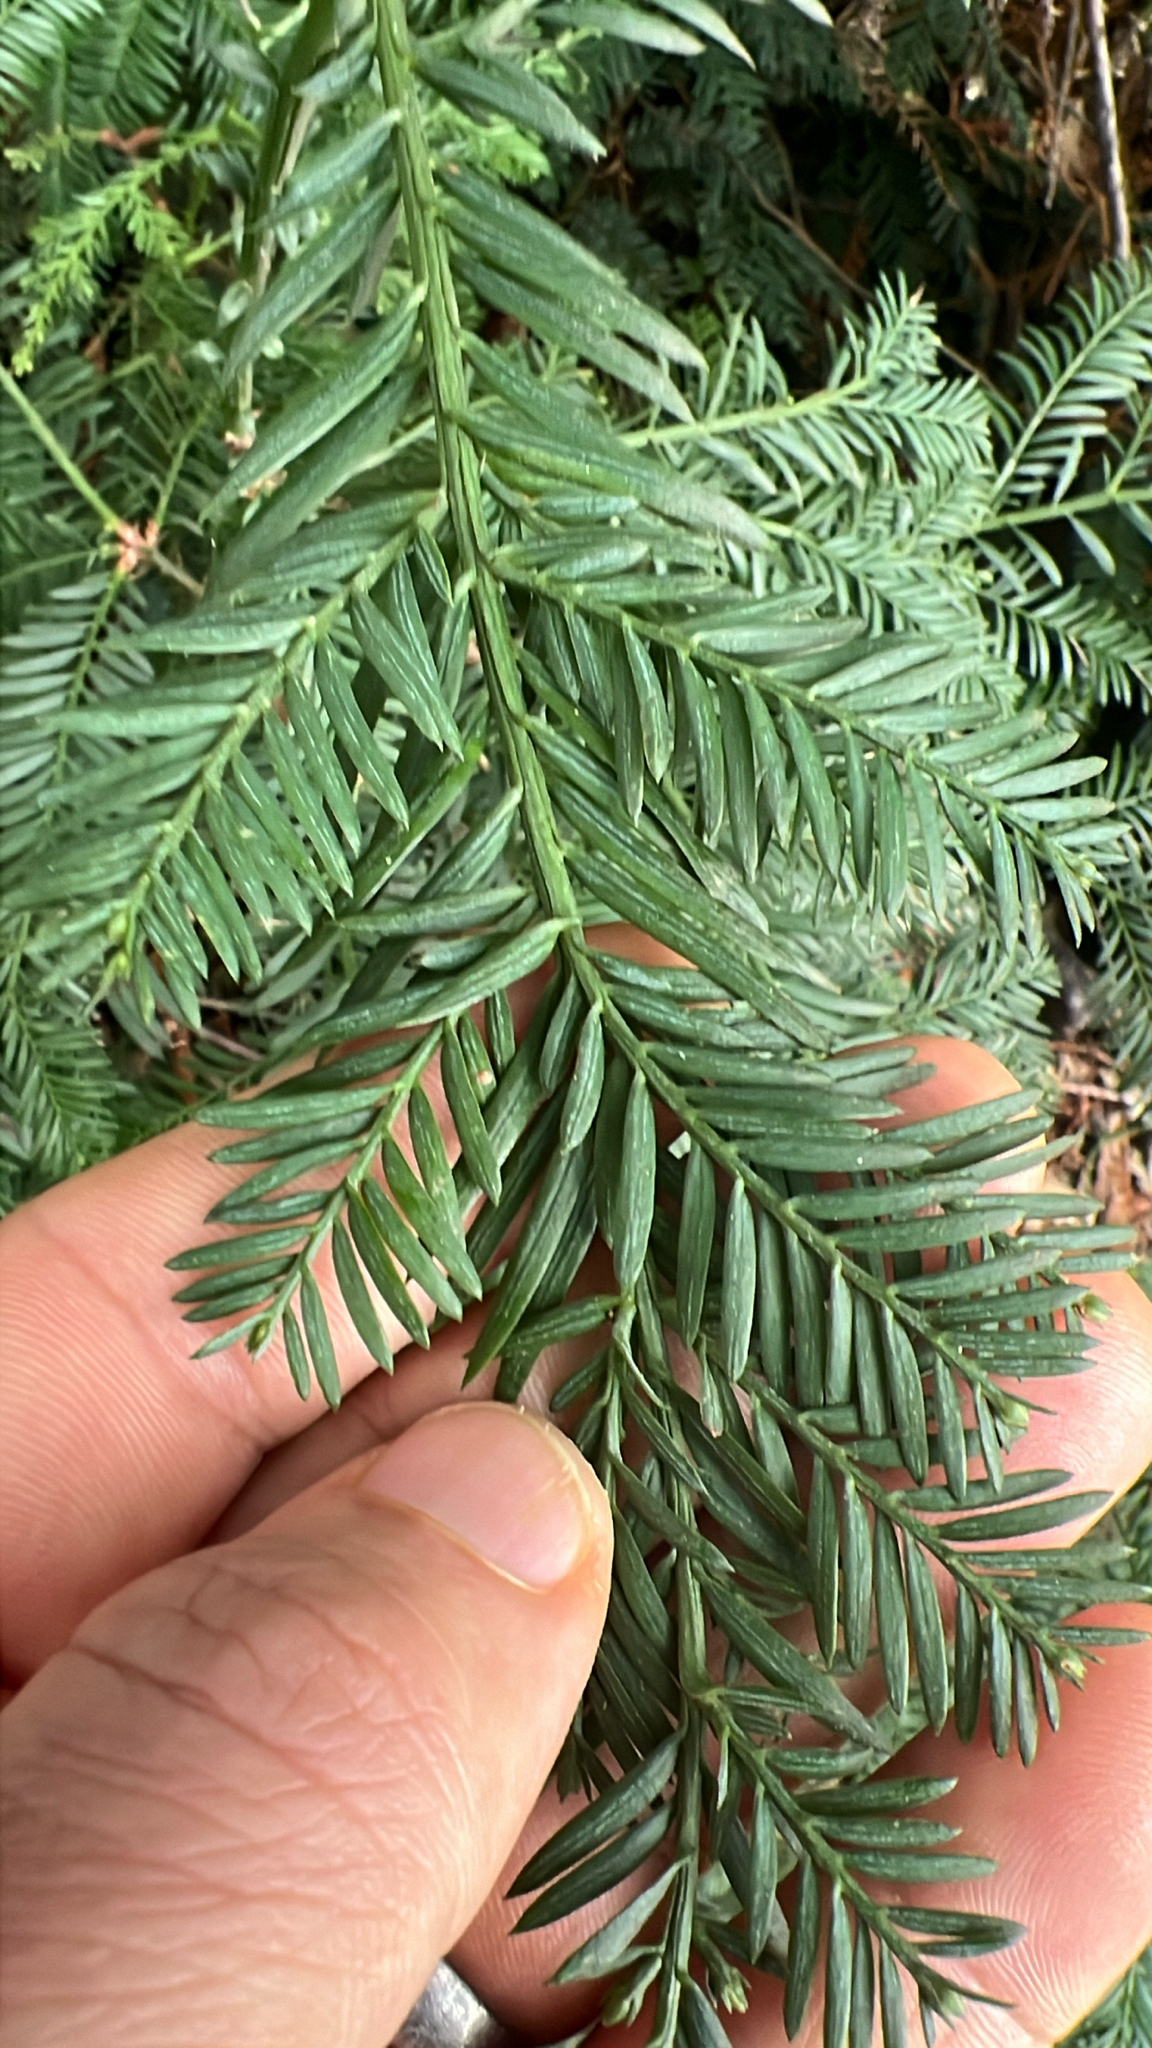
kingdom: Plantae
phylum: Tracheophyta
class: Pinopsida
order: Pinales
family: Cupressaceae
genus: Sequoia
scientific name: Sequoia sempervirens
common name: Coast redwood
